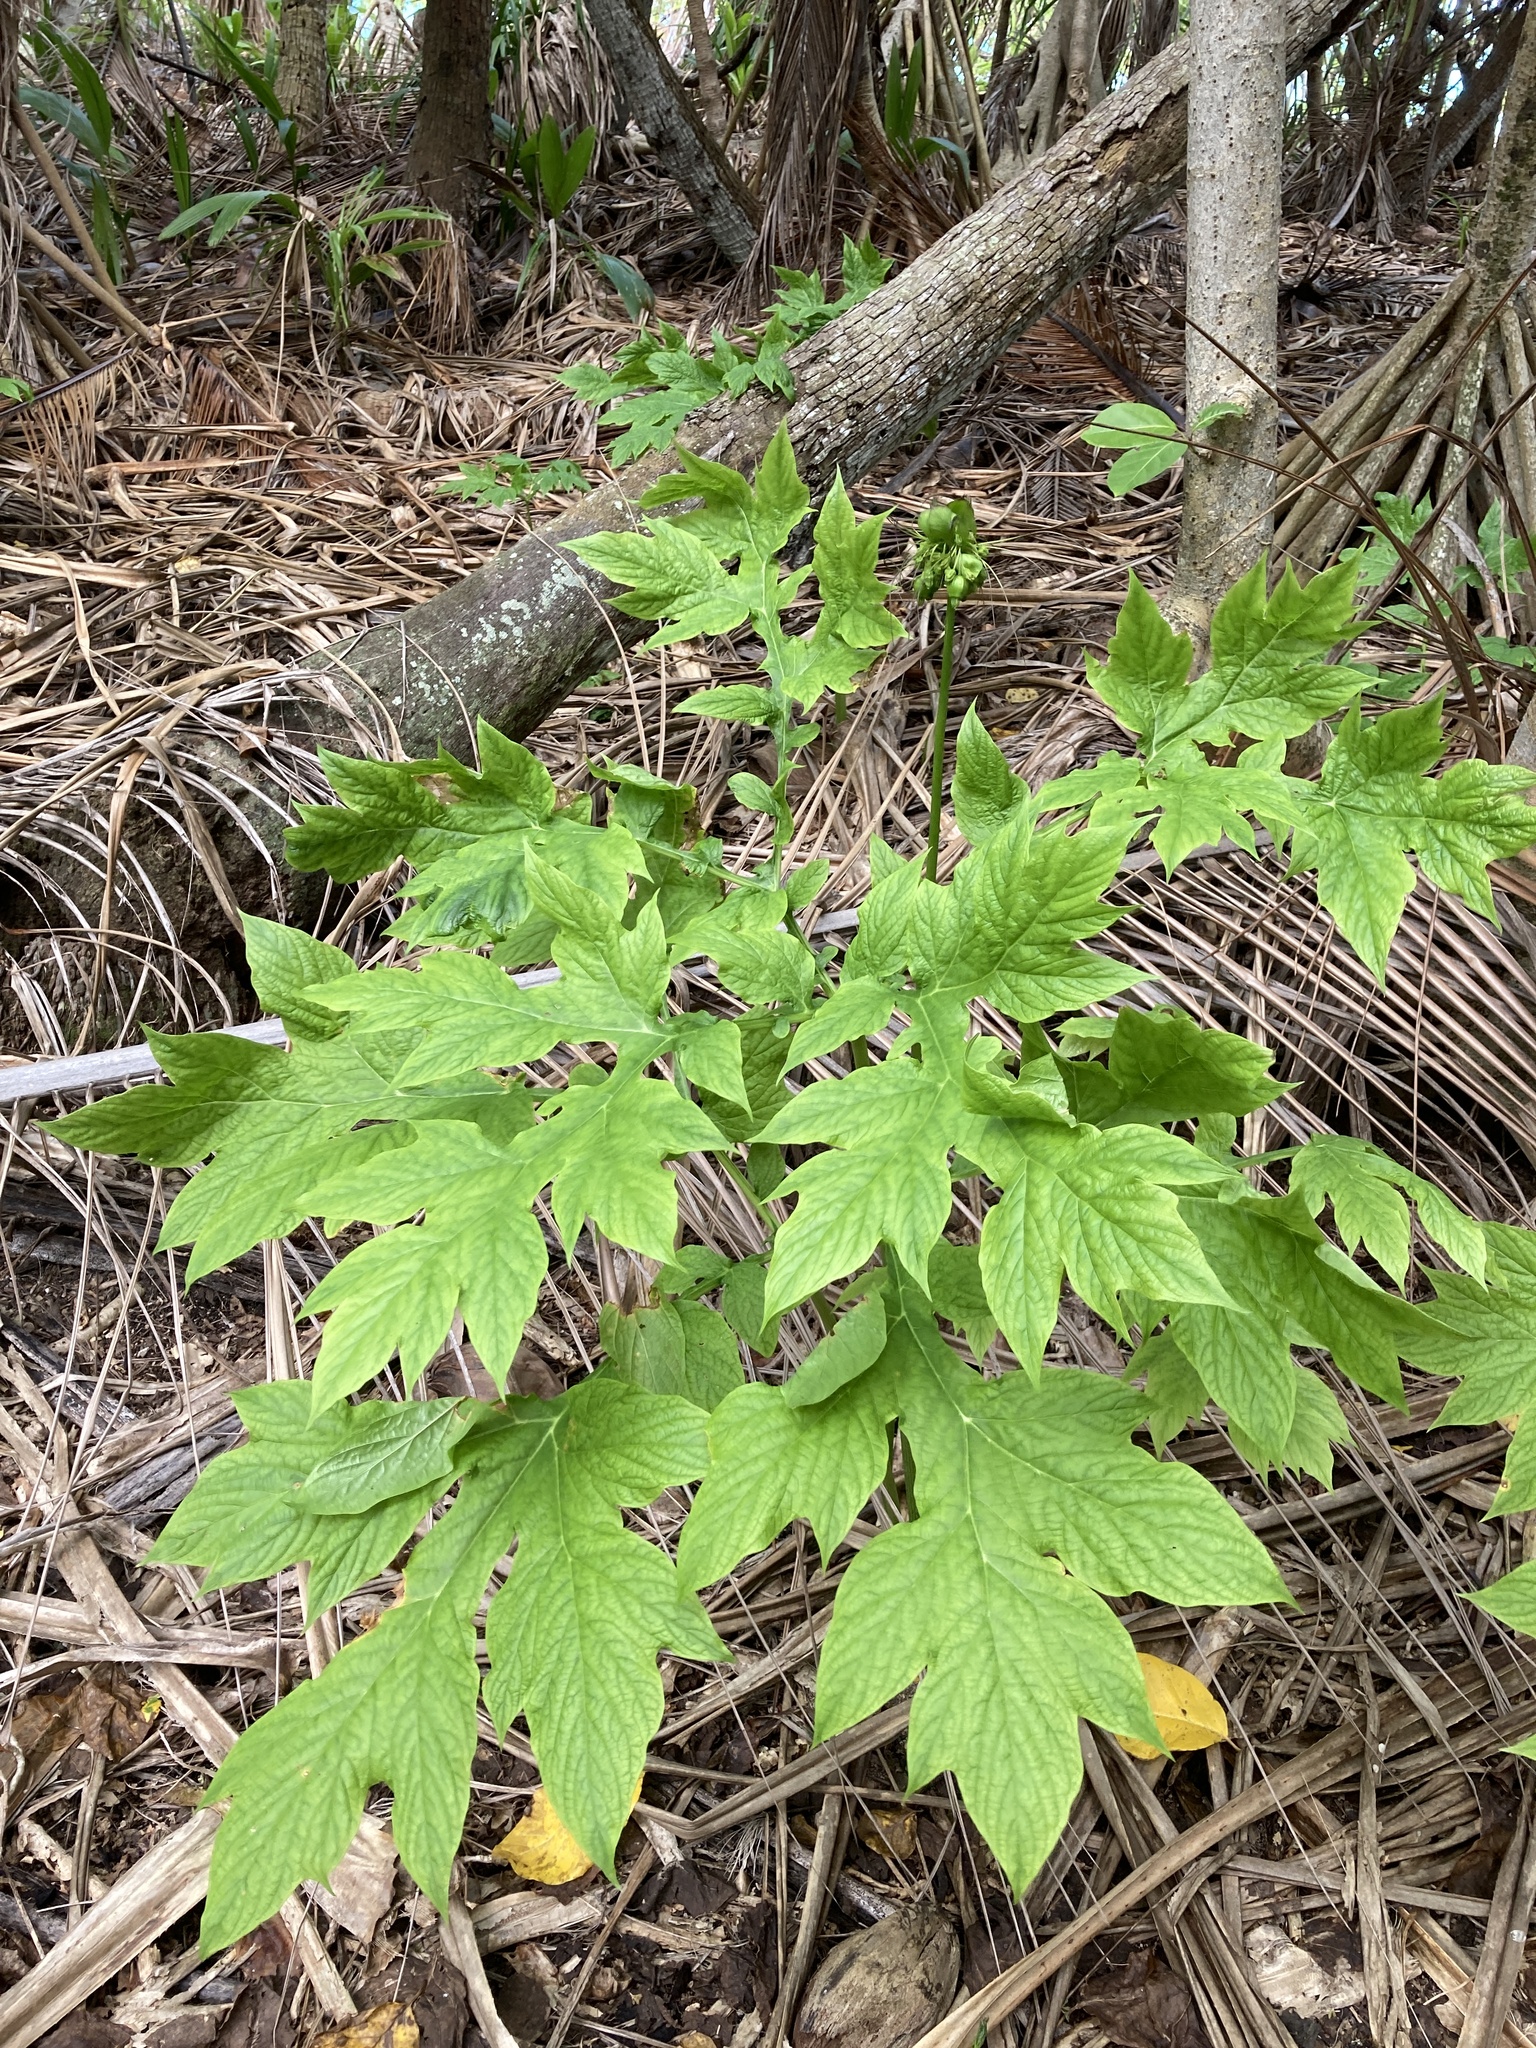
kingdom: Plantae
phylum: Tracheophyta
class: Liliopsida
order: Dioscoreales
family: Dioscoreaceae
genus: Tacca
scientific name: Tacca leontopetaloides
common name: Arrowroot
